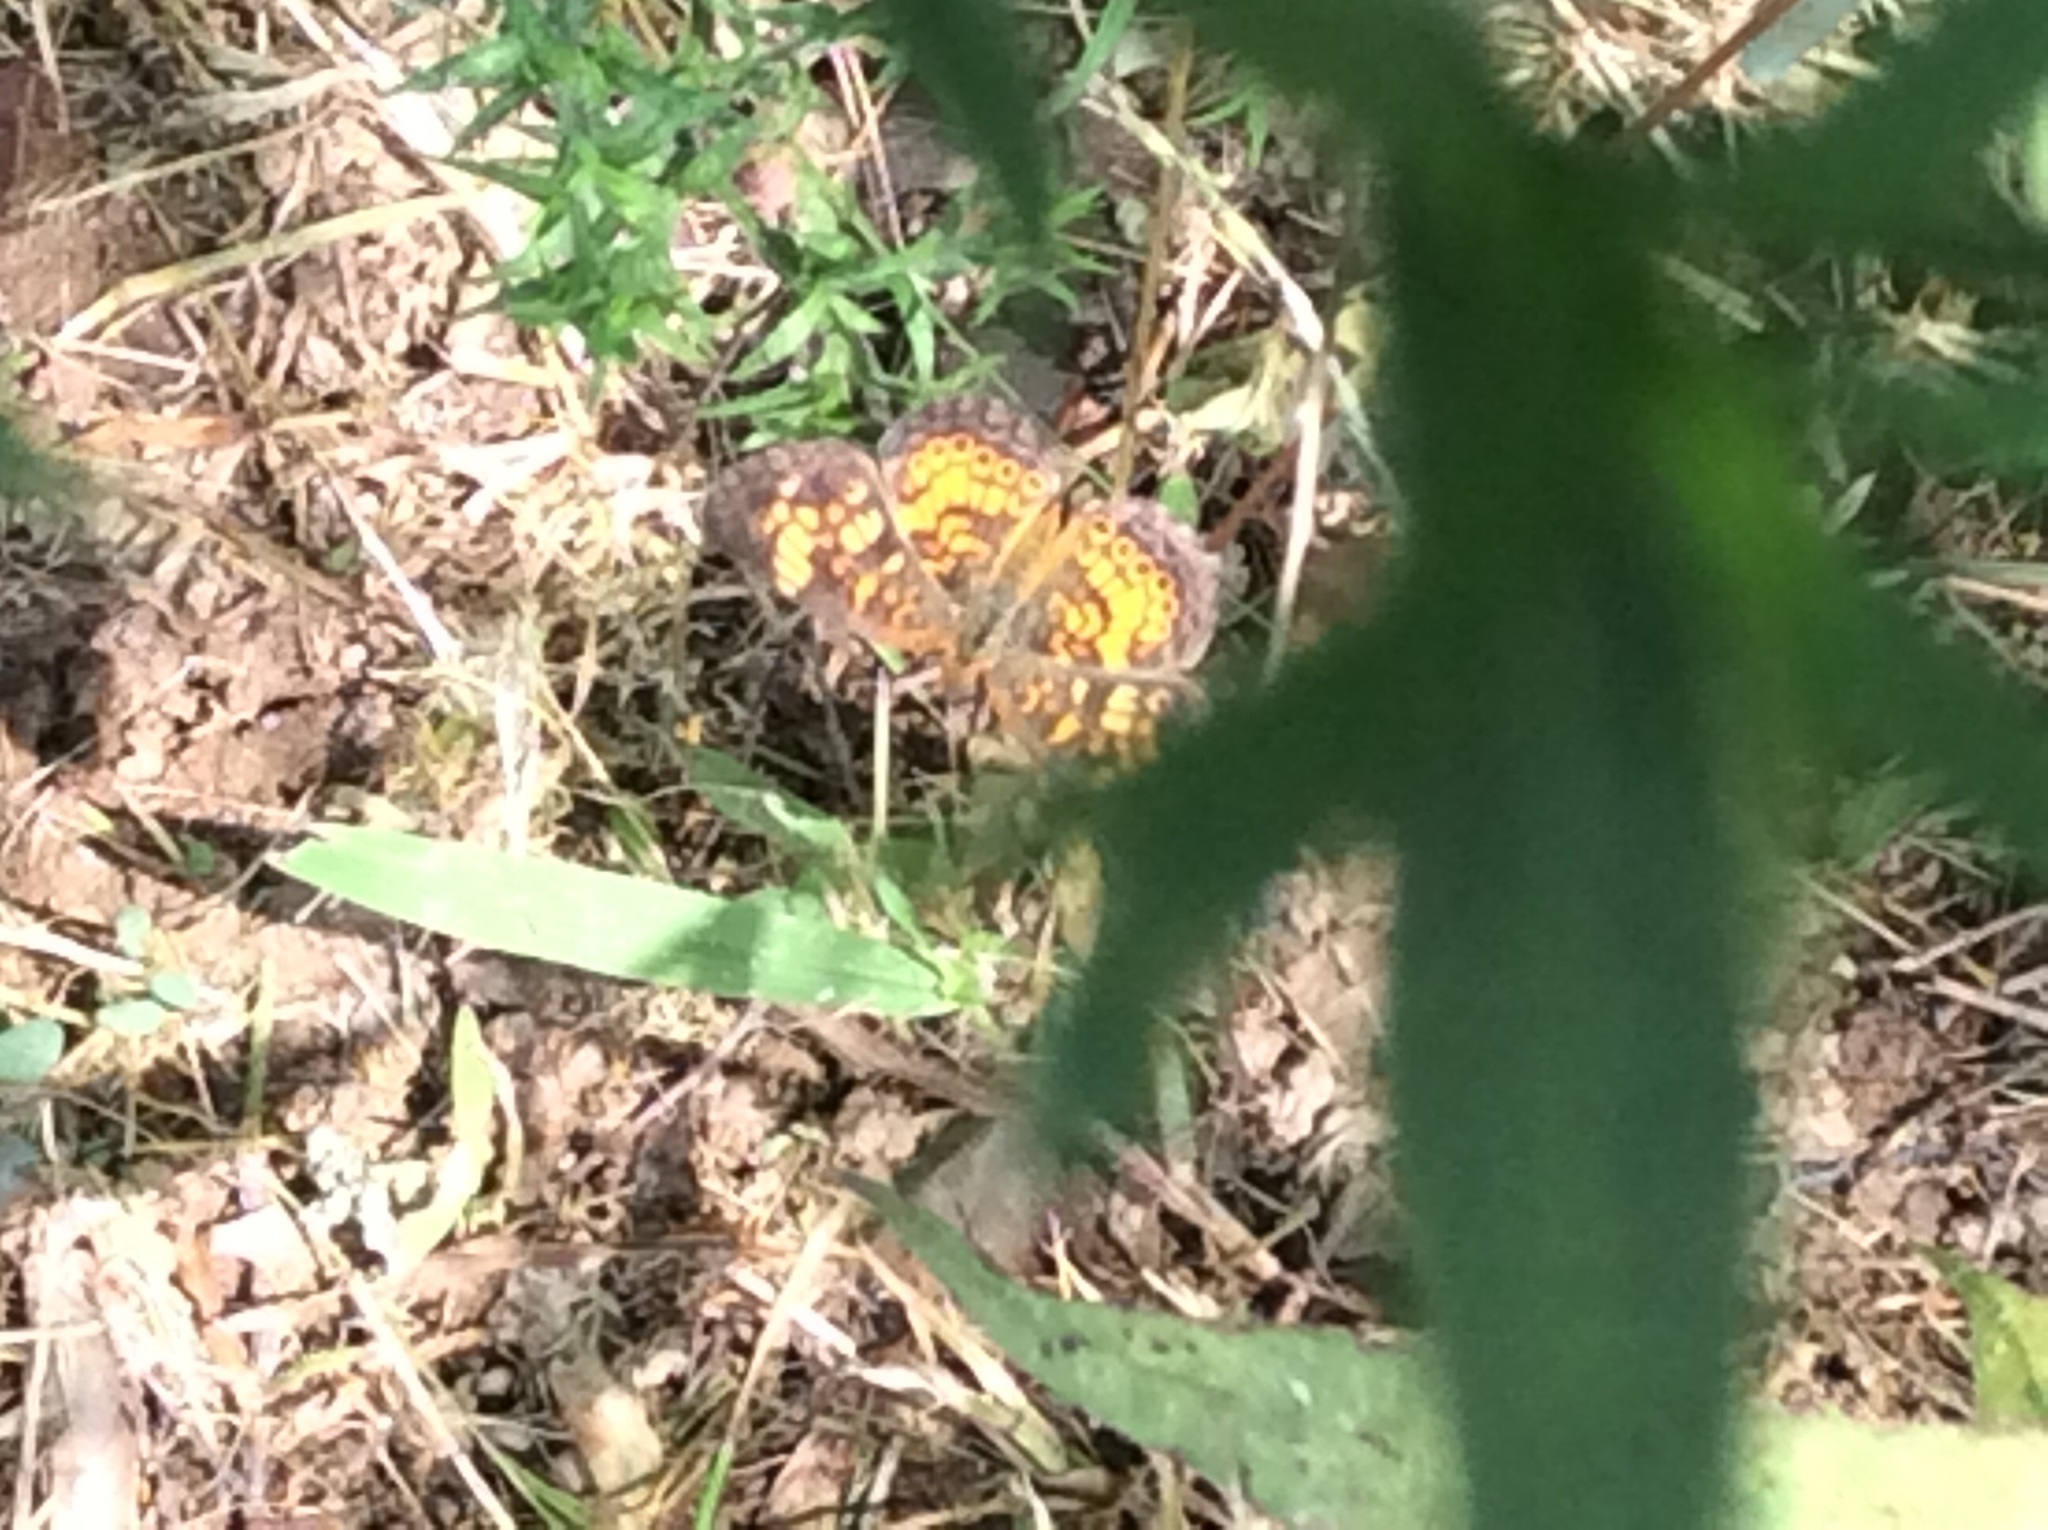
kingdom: Animalia
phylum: Arthropoda
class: Insecta
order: Lepidoptera
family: Nymphalidae
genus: Phyciodes
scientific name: Phyciodes tharos
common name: Pearl crescent
